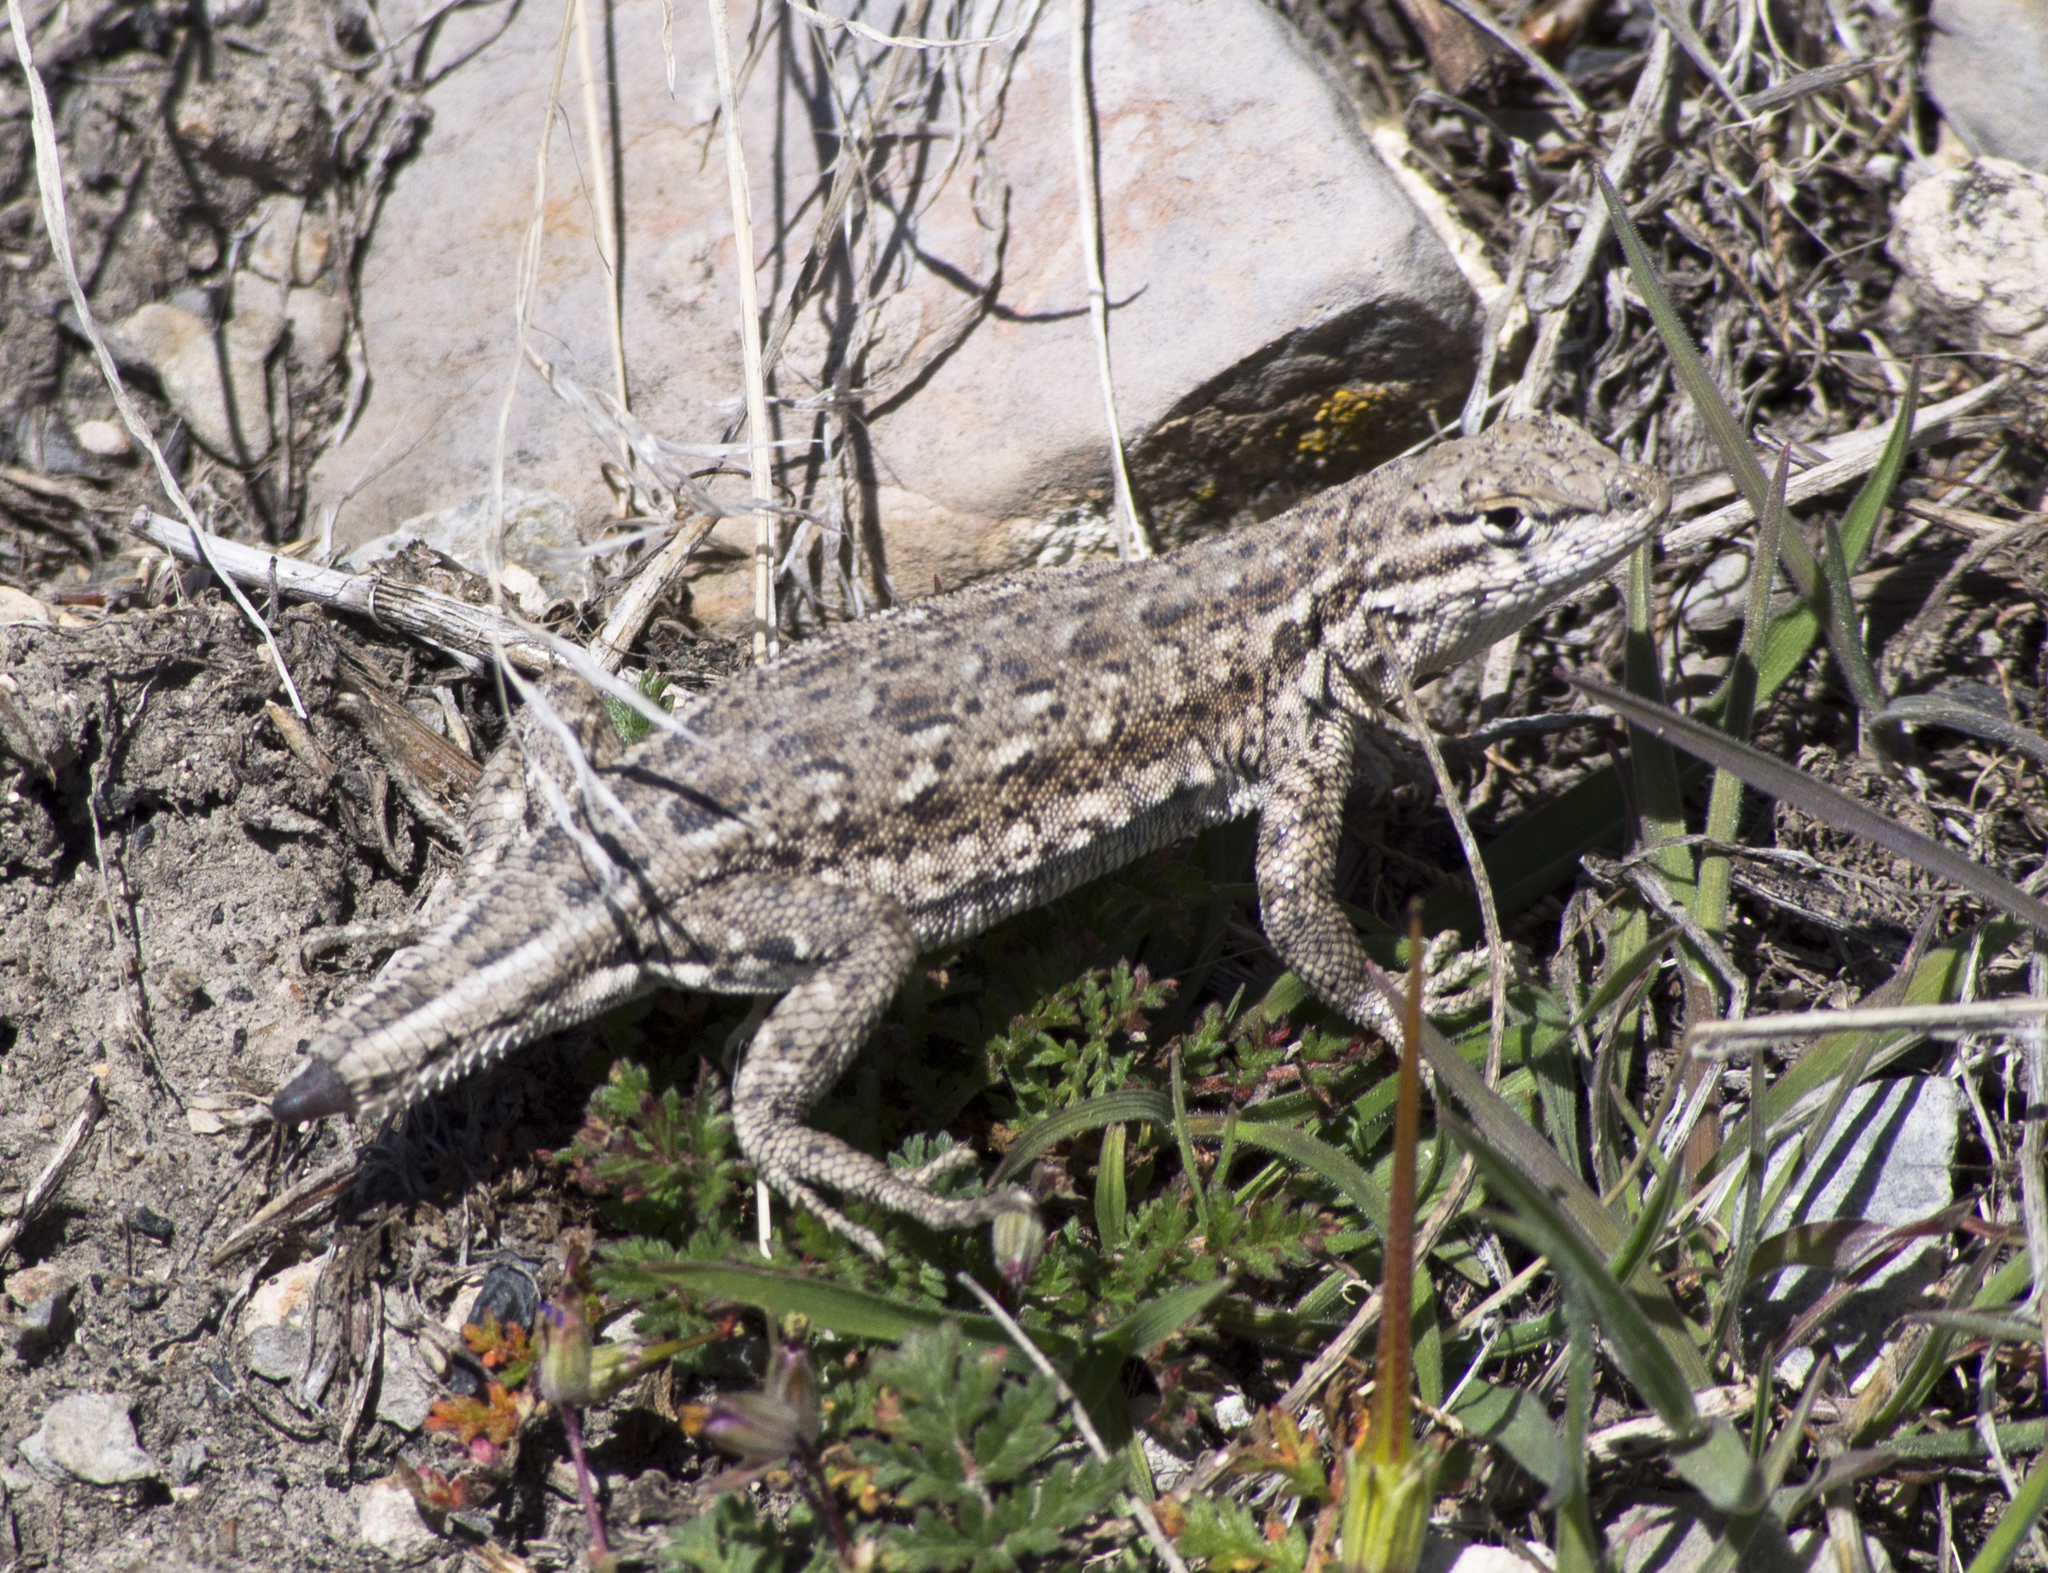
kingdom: Animalia
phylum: Chordata
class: Squamata
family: Phrynosomatidae
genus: Uta
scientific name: Uta stansburiana
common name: Side-blotched lizard
